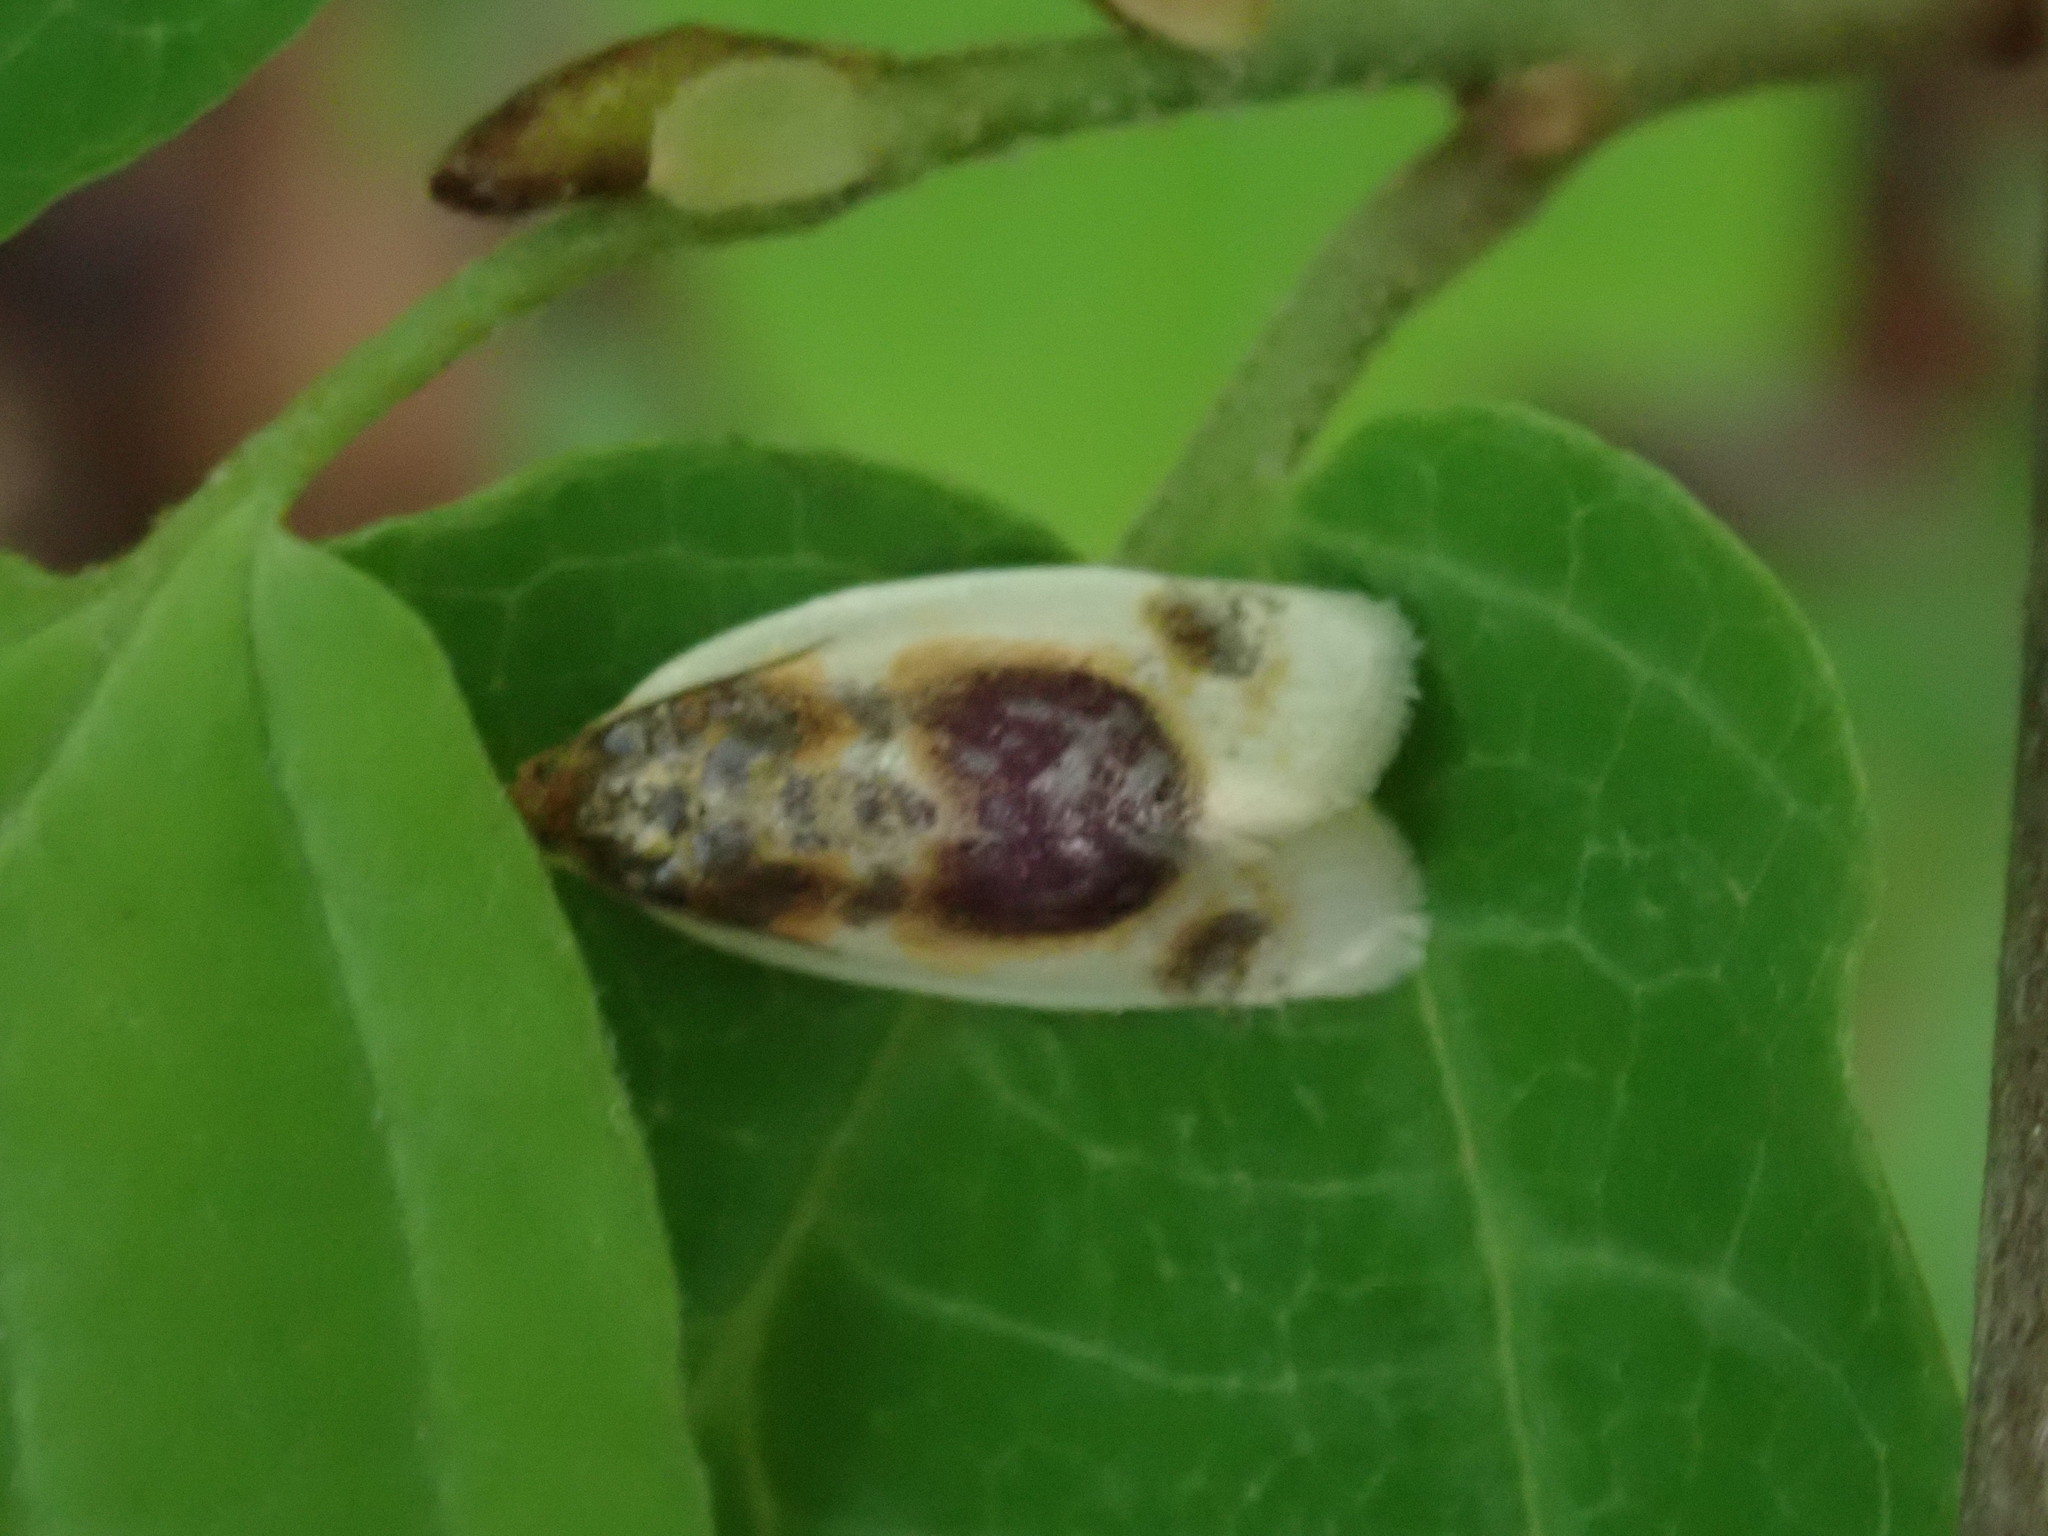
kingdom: Animalia
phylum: Arthropoda
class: Insecta
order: Lepidoptera
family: Tortricidae
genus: Clepsis
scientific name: Clepsis melaleucanus
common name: American apple tortrix
